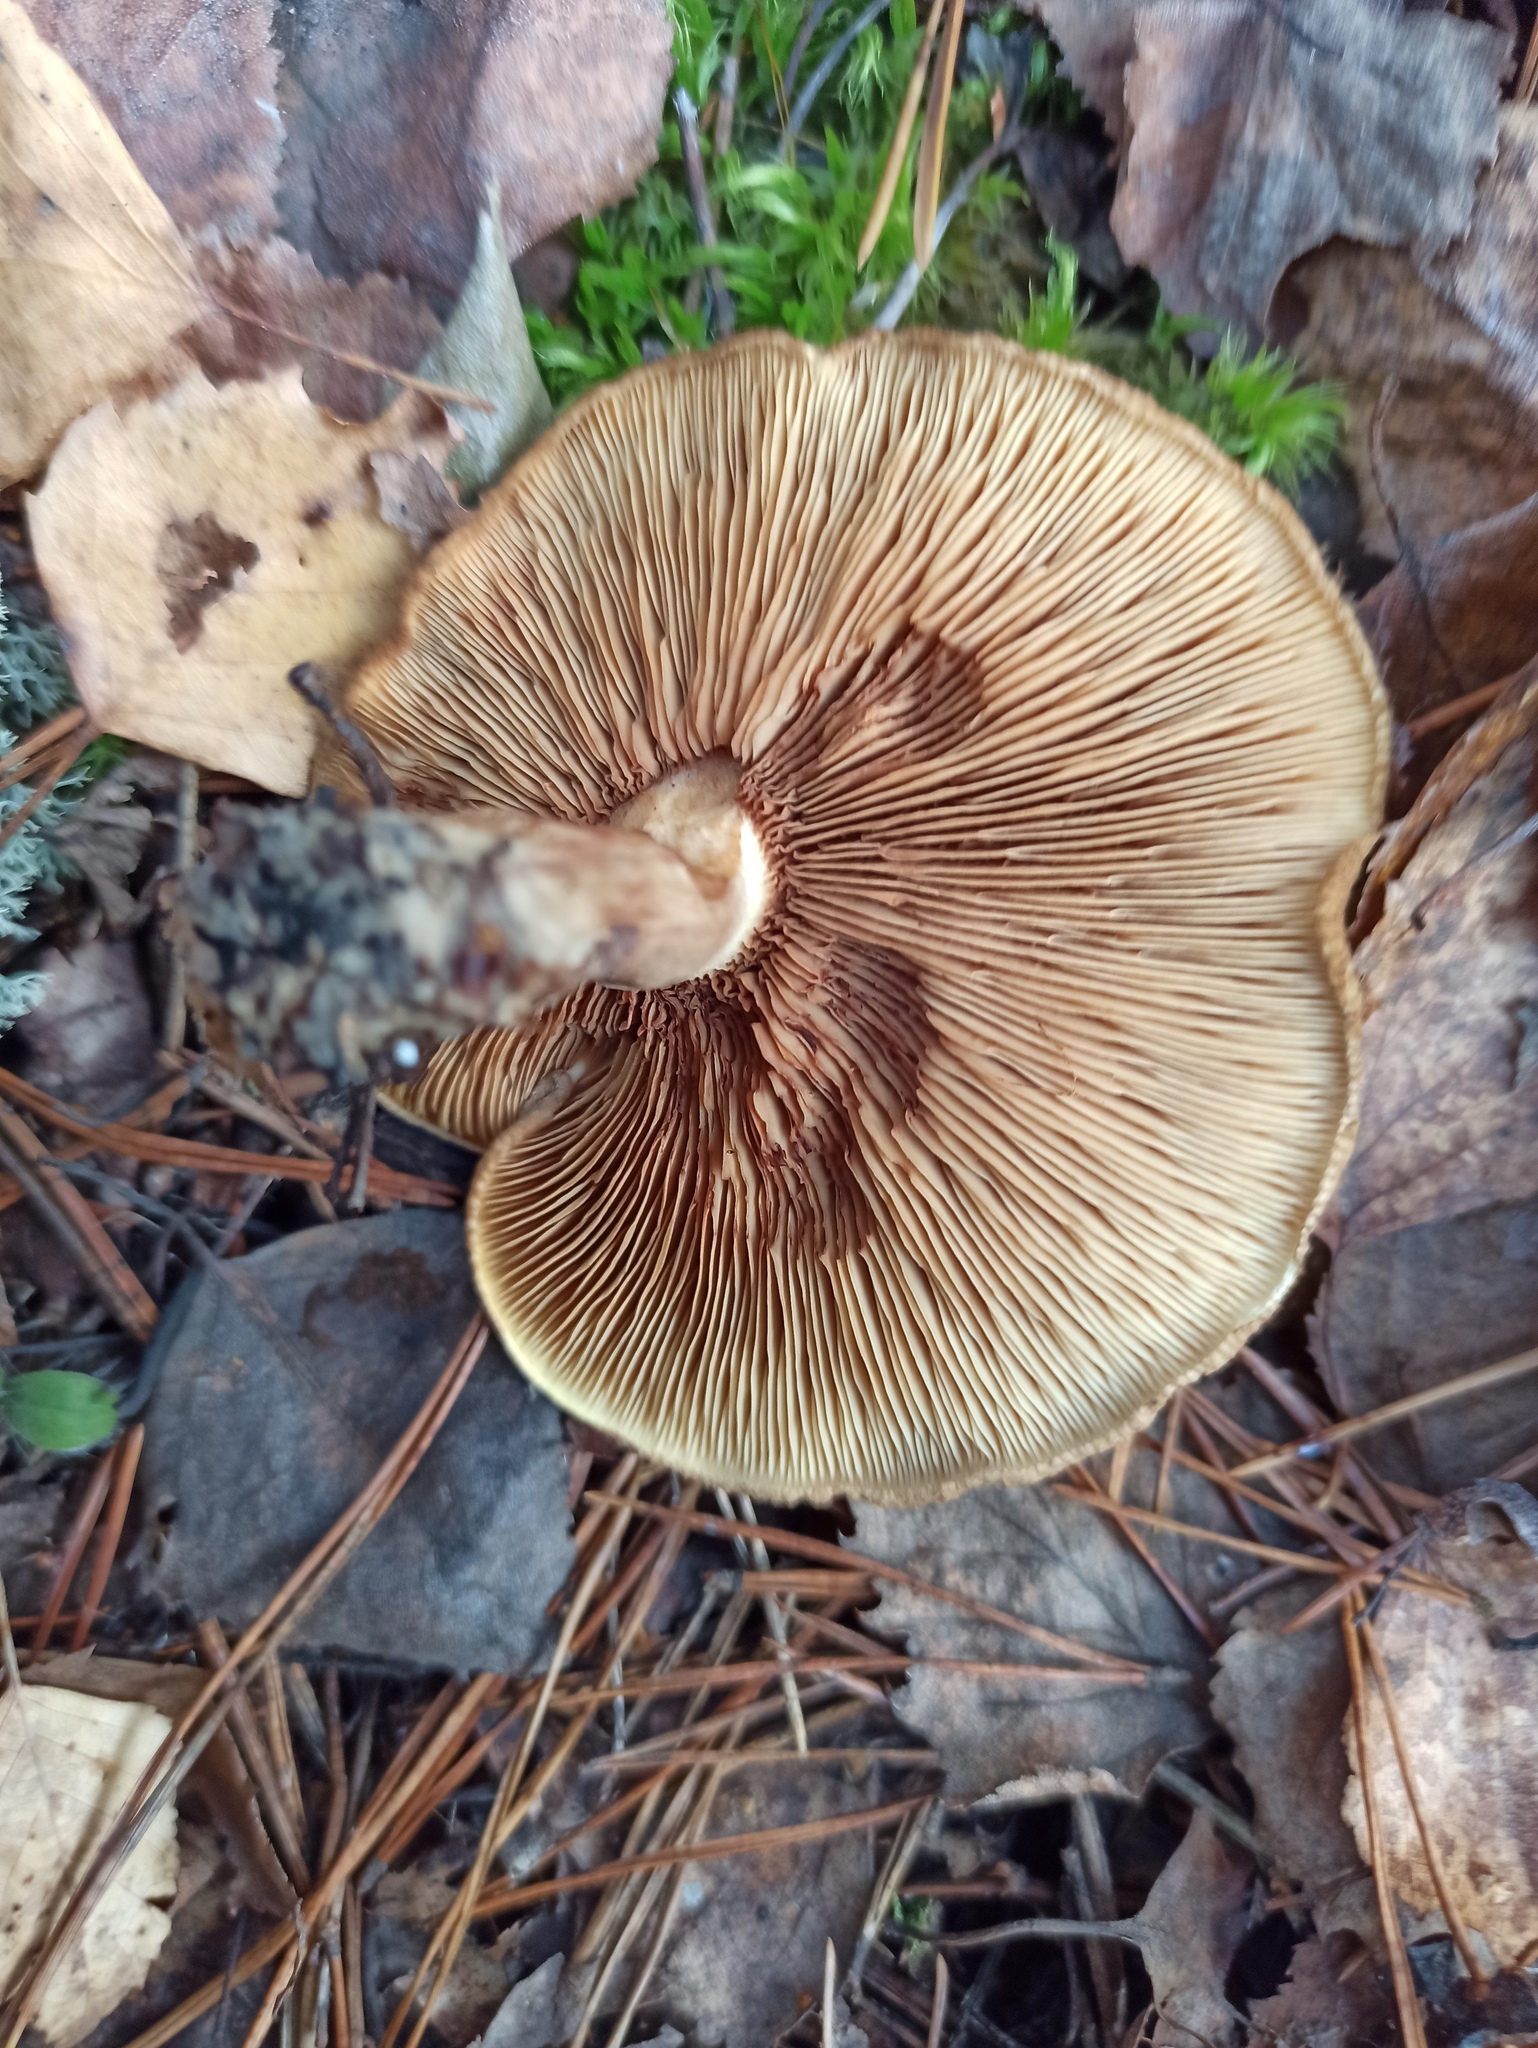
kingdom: Fungi
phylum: Basidiomycota
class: Agaricomycetes
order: Boletales
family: Paxillaceae
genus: Paxillus
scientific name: Paxillus involutus
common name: Brown roll rim
